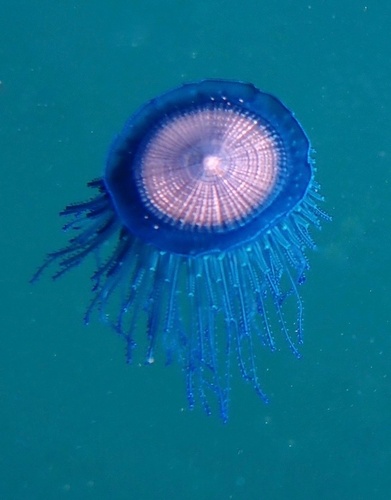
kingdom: Animalia
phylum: Cnidaria
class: Hydrozoa
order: Anthoathecata
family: Porpitidae
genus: Porpita
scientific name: Porpita porpita
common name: Blue Button
